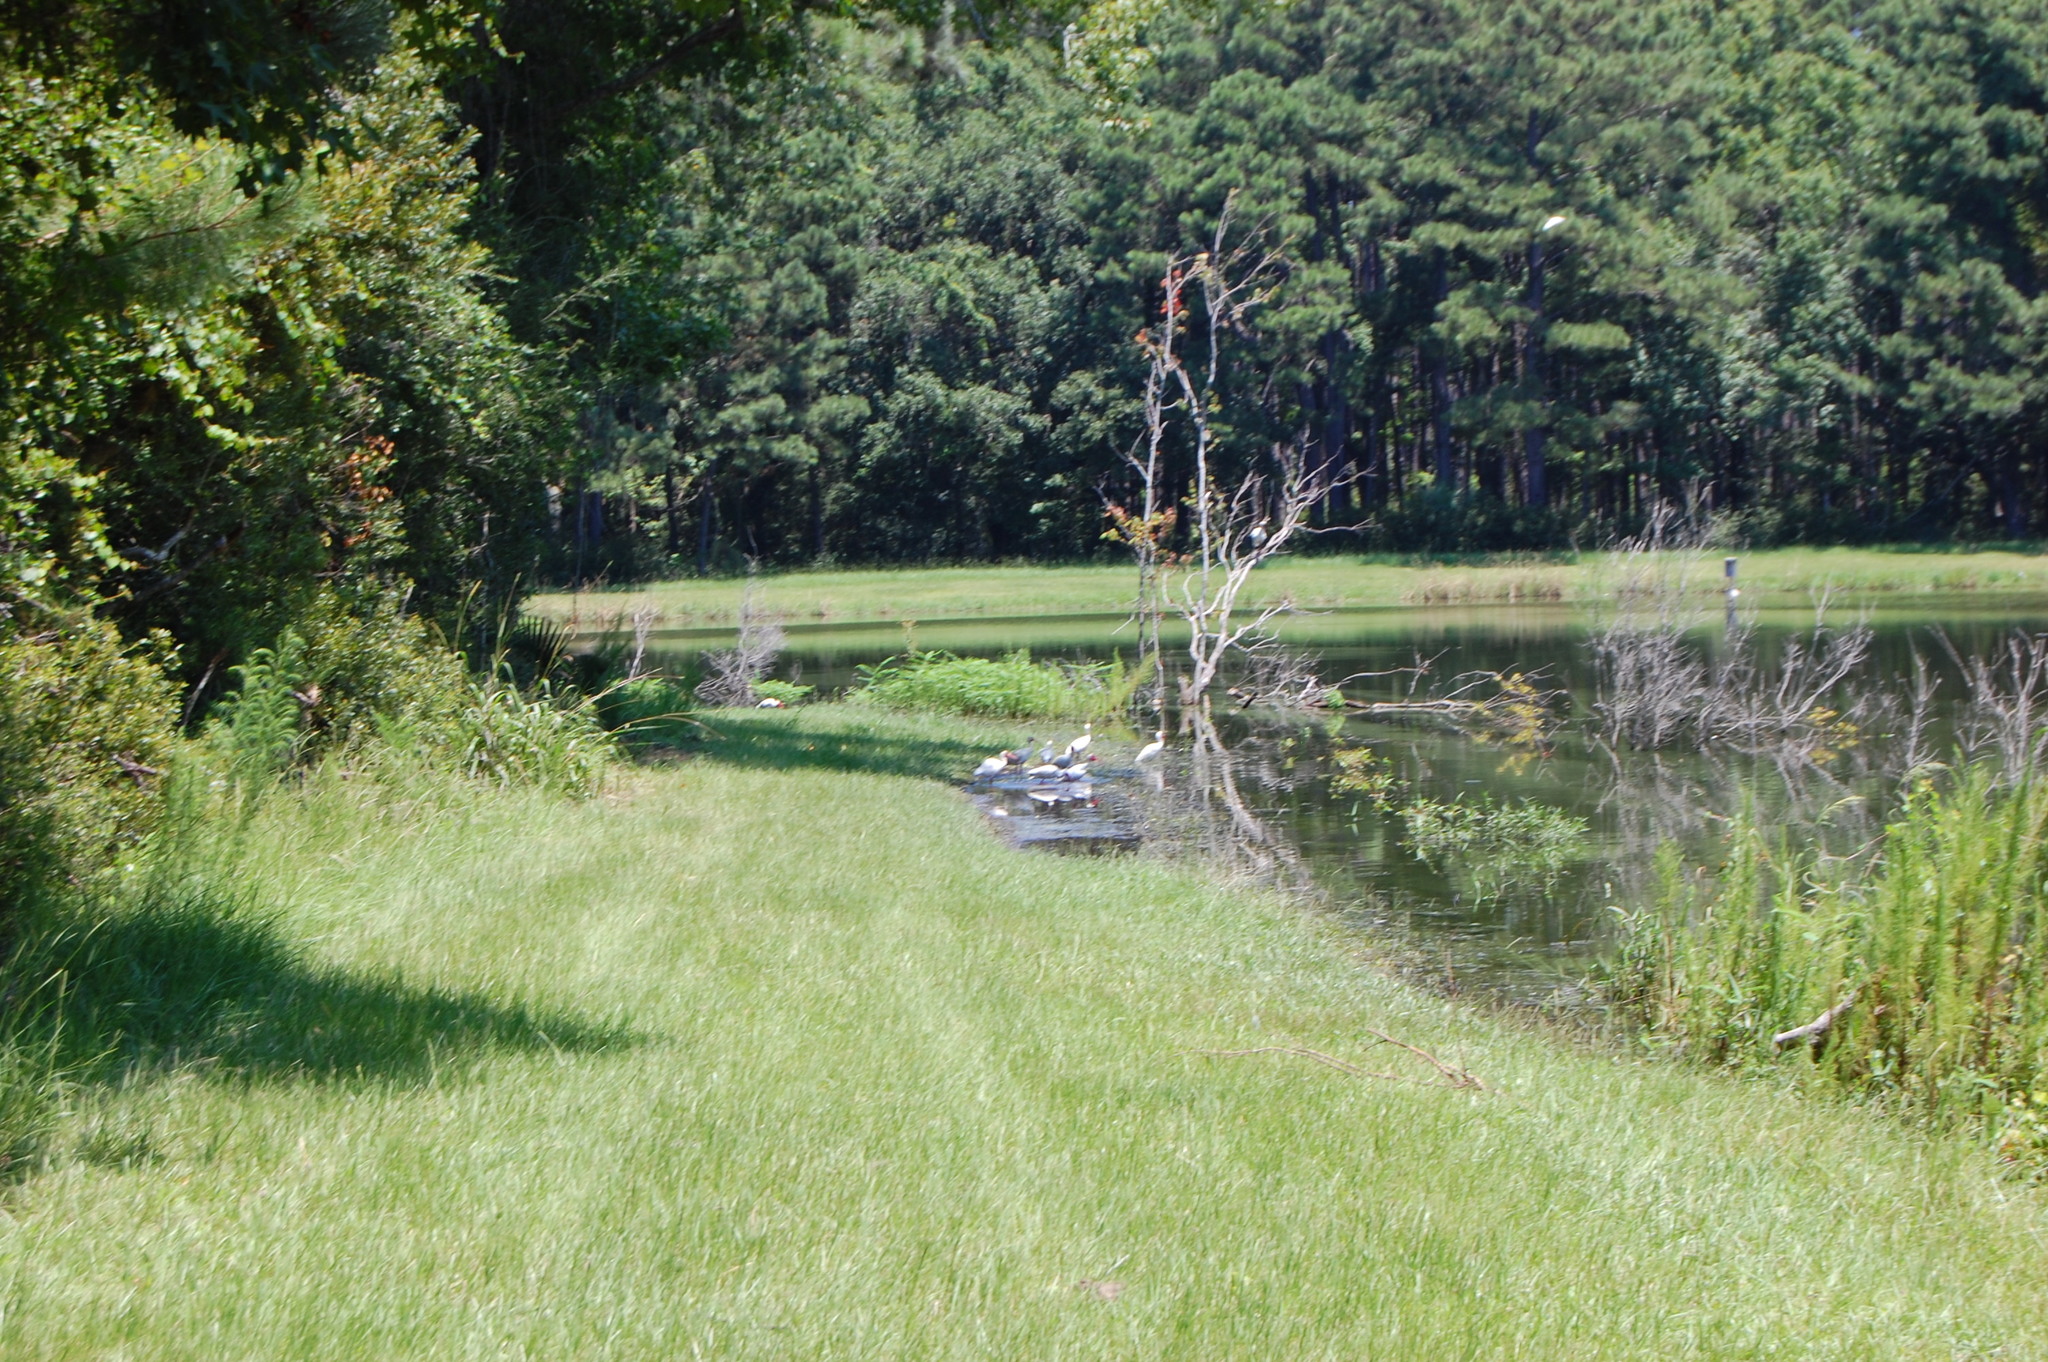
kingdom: Animalia
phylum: Chordata
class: Aves
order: Pelecaniformes
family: Threskiornithidae
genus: Eudocimus
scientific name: Eudocimus albus
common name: White ibis
